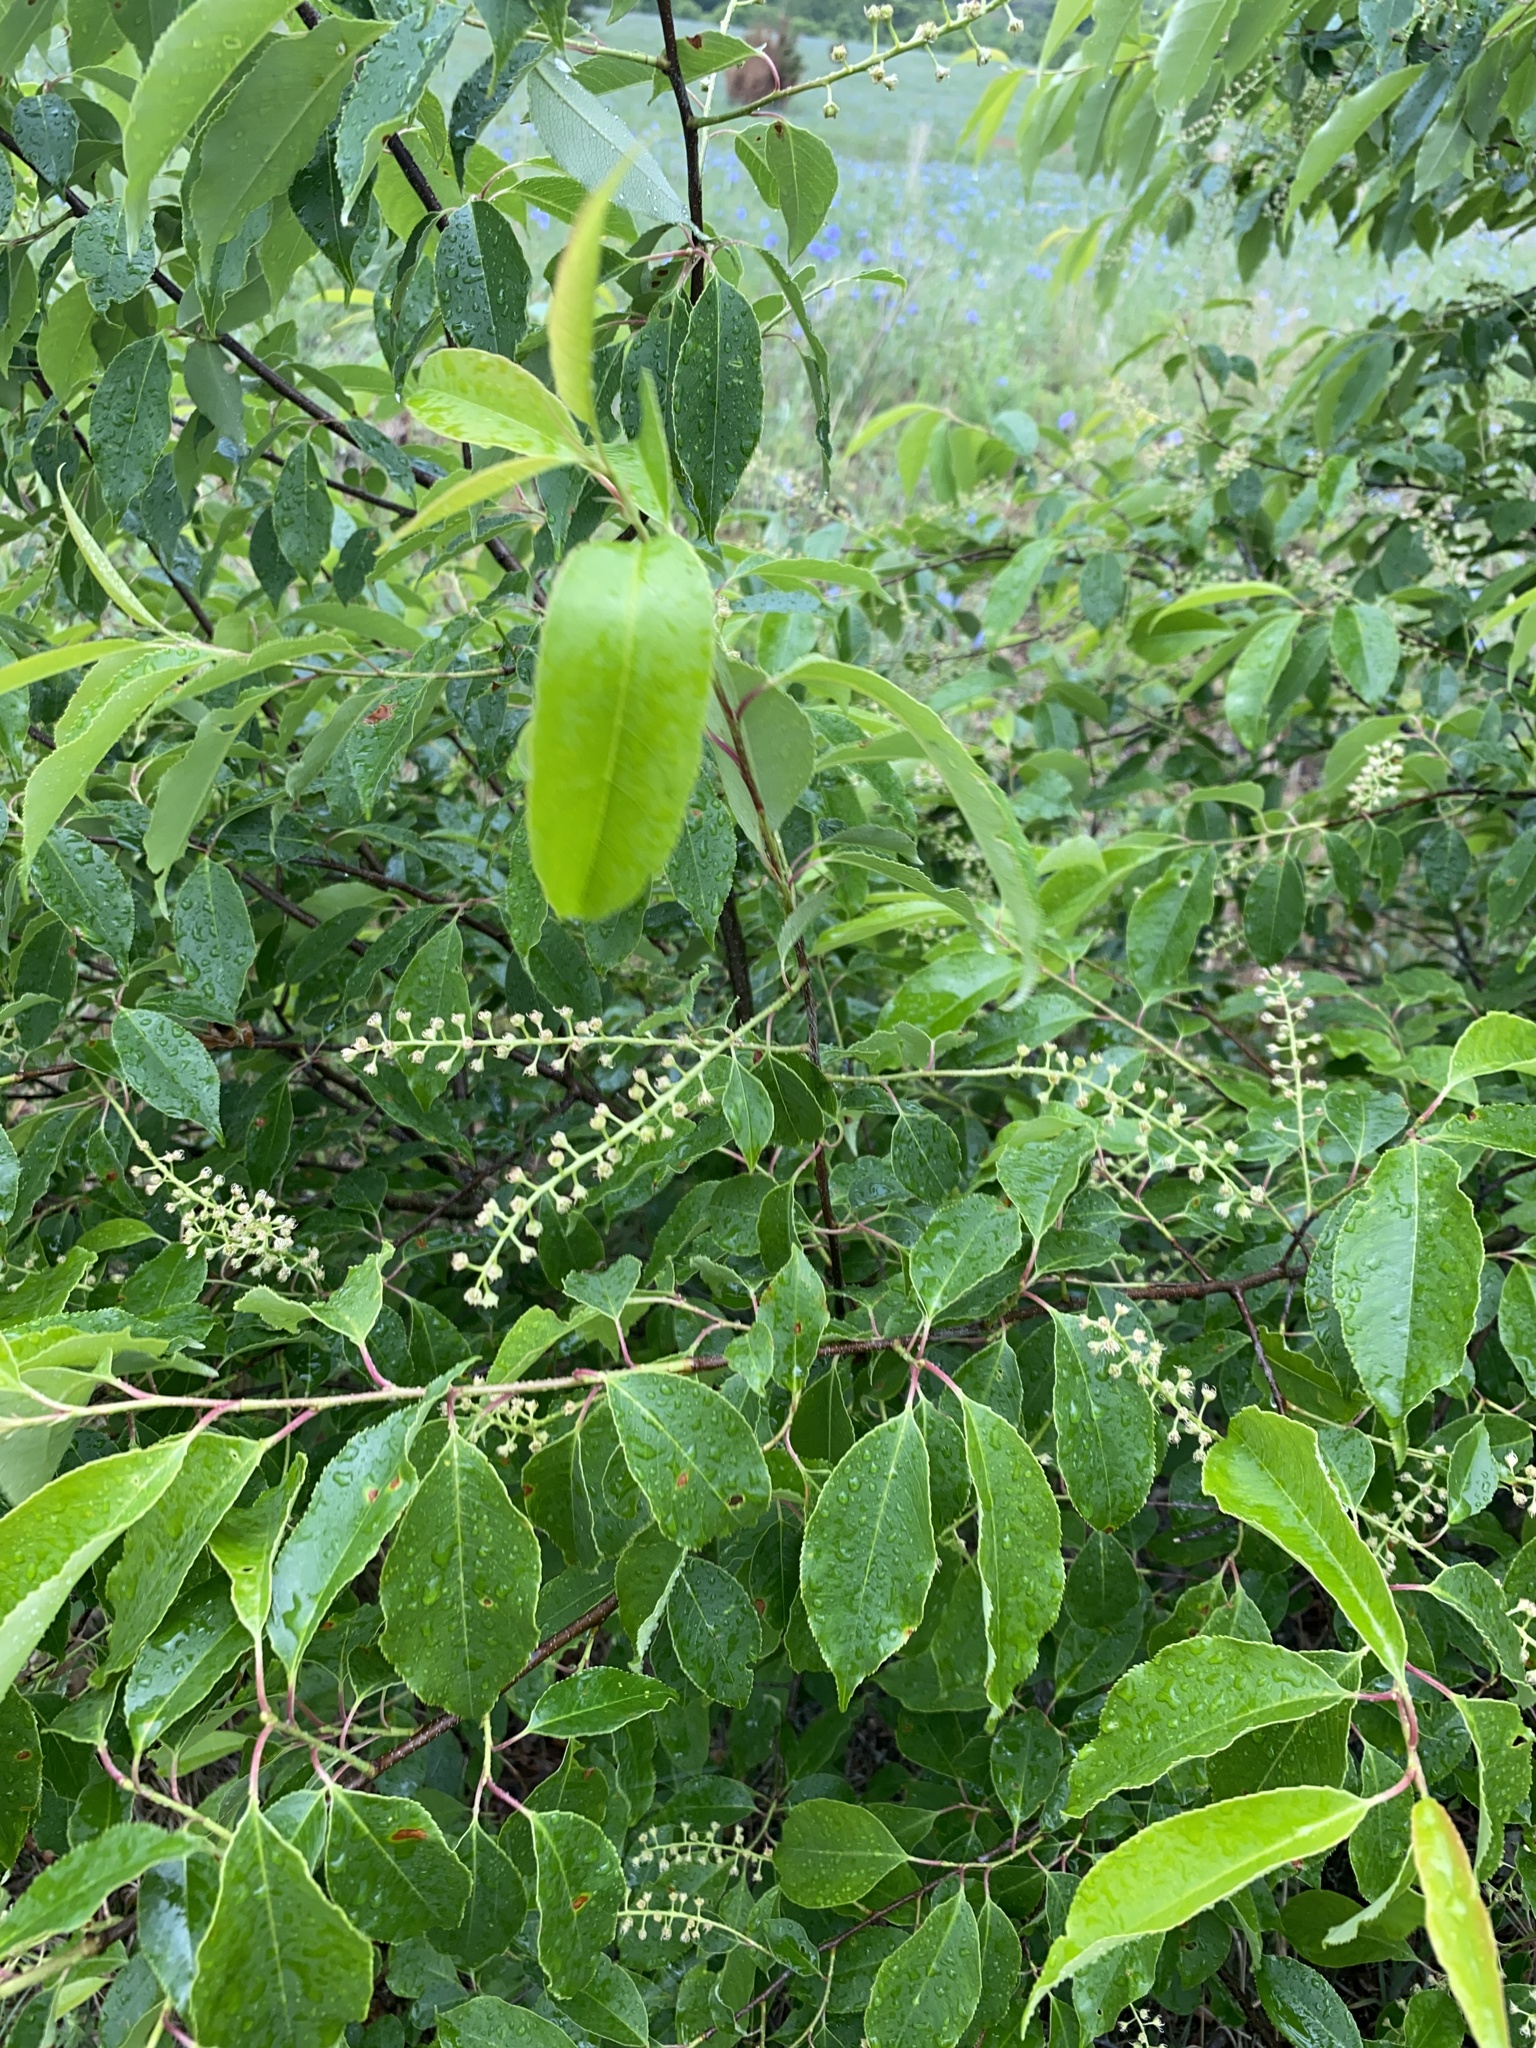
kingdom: Plantae
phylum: Tracheophyta
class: Magnoliopsida
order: Rosales
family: Rosaceae
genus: Prunus
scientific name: Prunus serotina
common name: Black cherry
